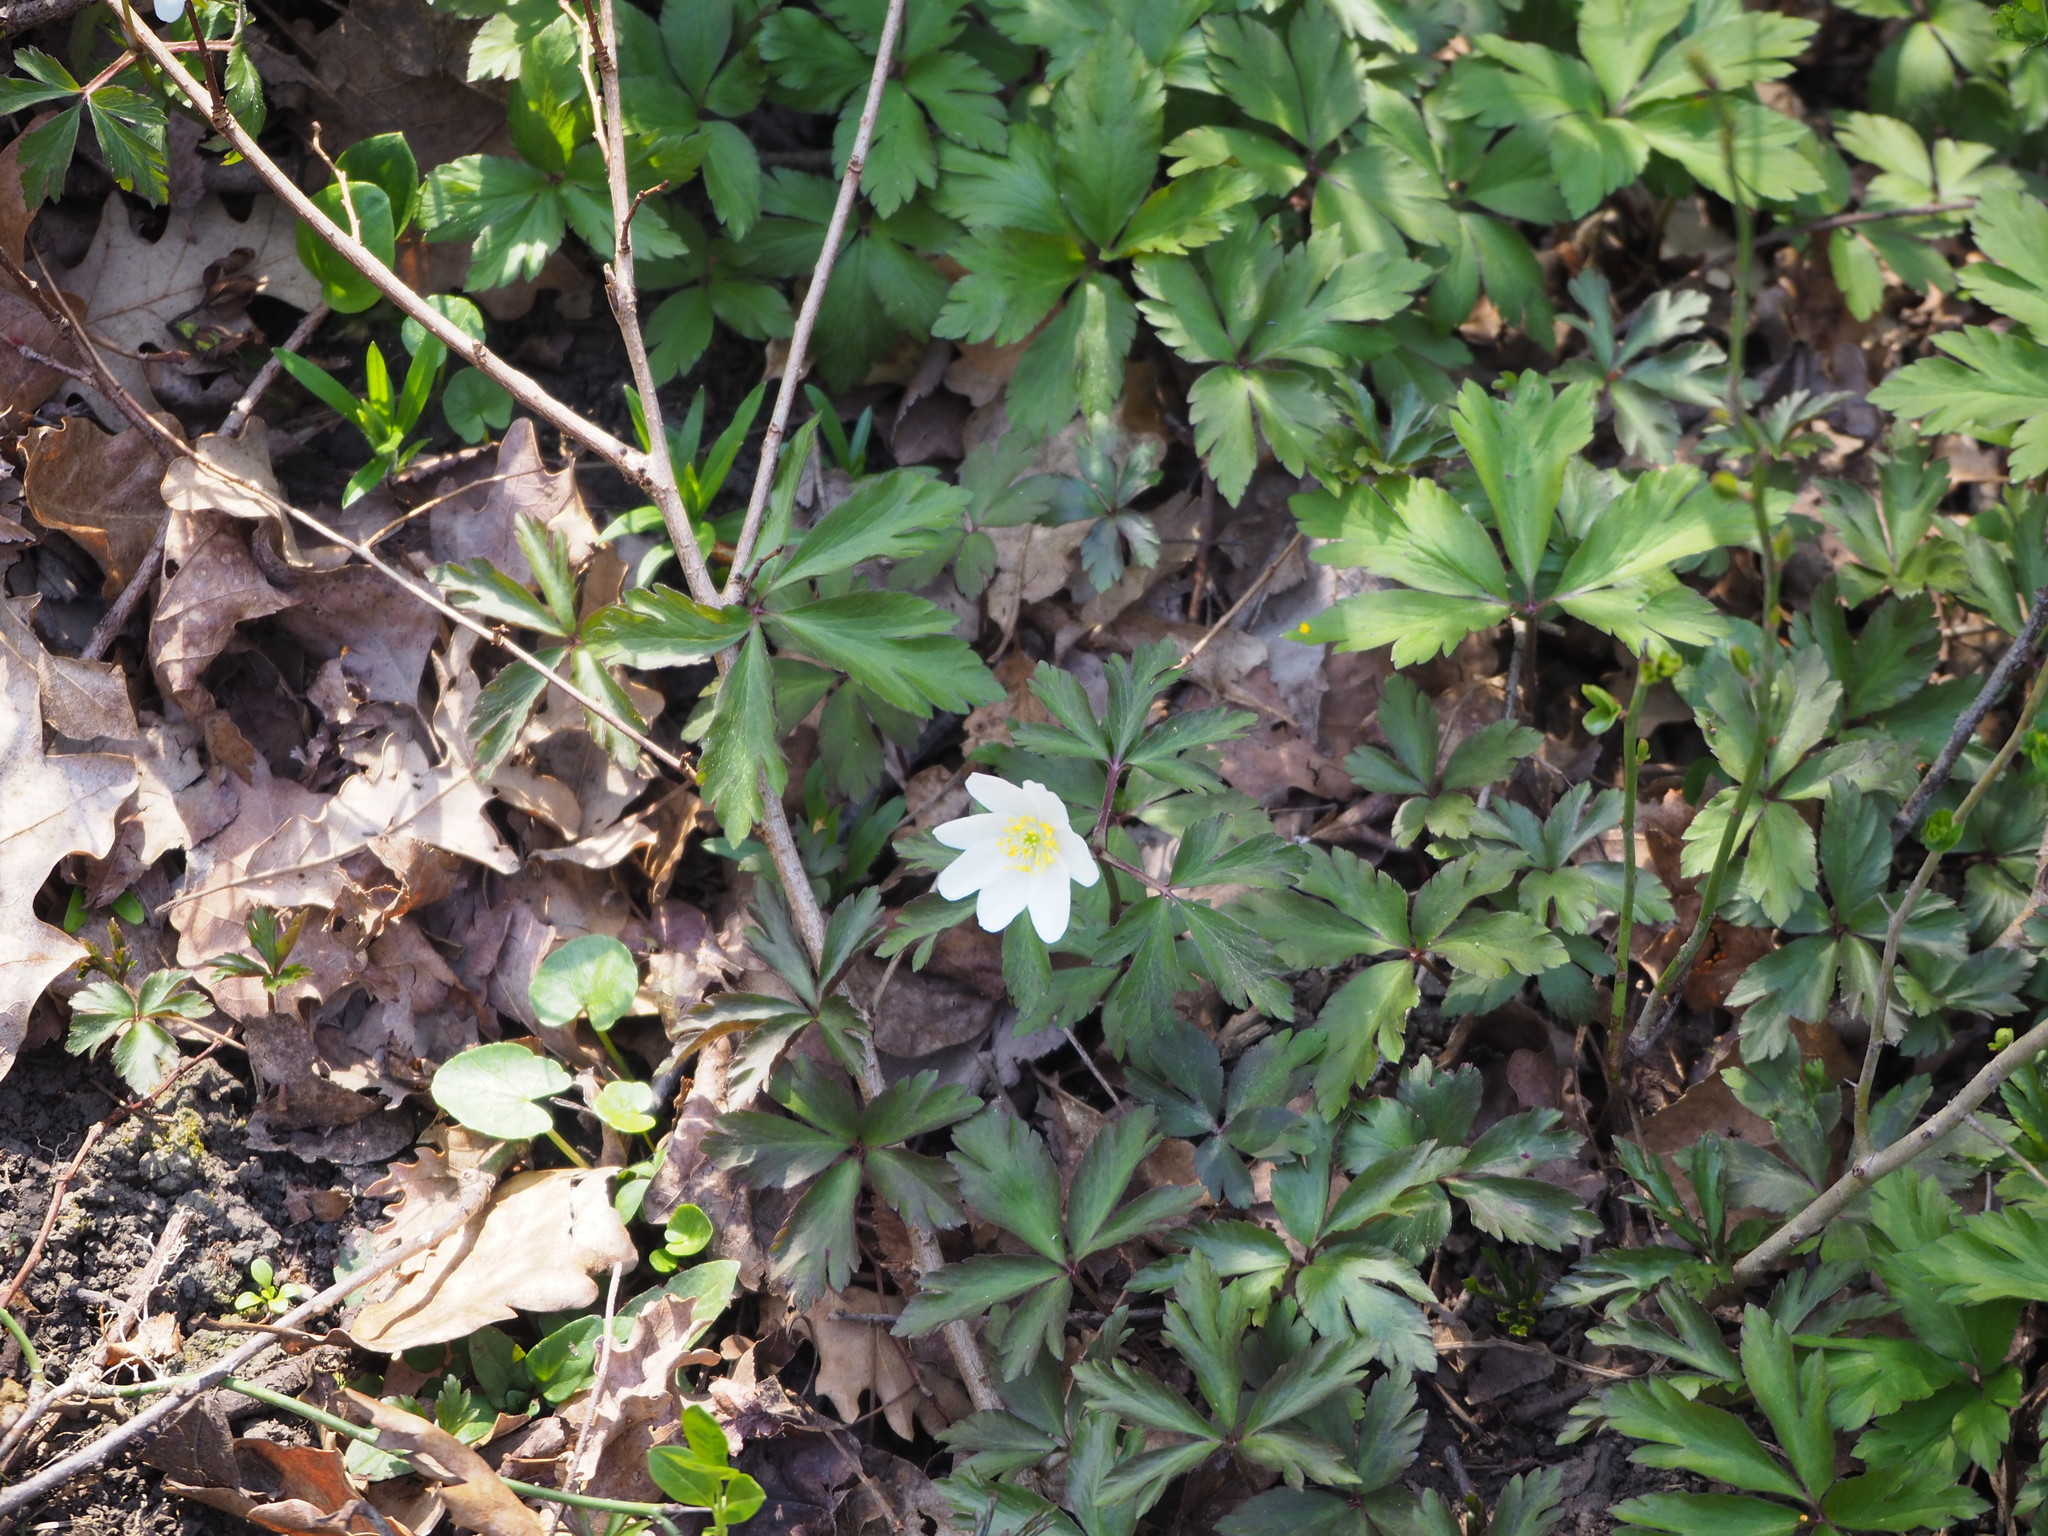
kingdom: Plantae
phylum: Tracheophyta
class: Magnoliopsida
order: Ranunculales
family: Ranunculaceae
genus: Anemone
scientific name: Anemone nemorosa
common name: Wood anemone
